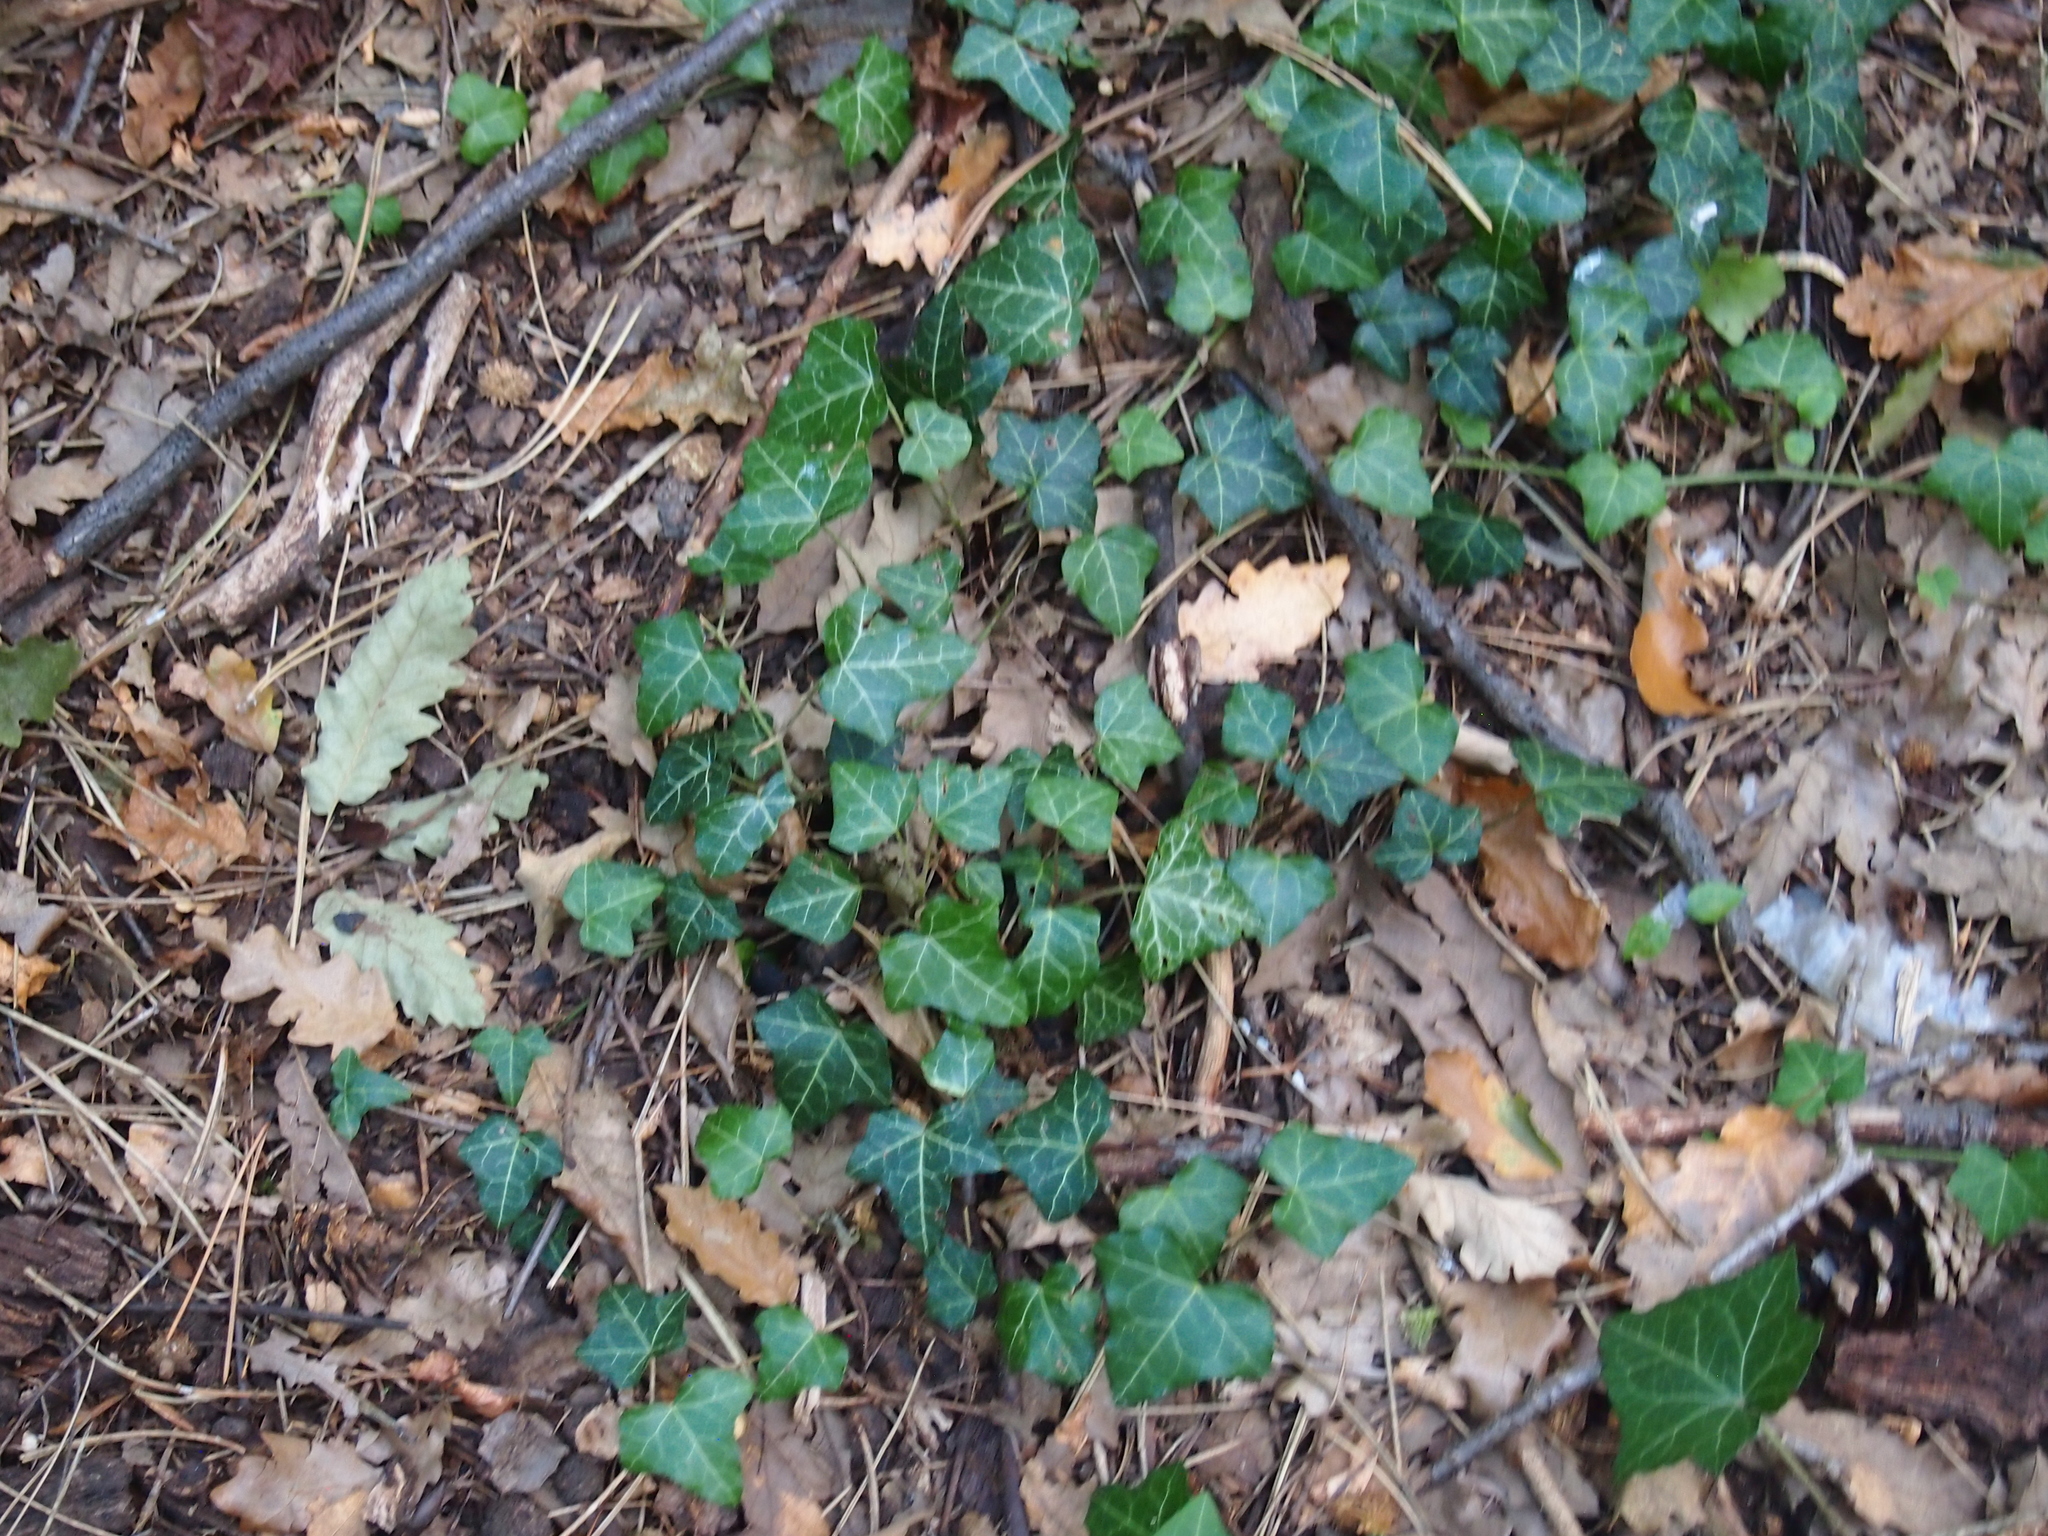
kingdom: Plantae
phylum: Tracheophyta
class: Magnoliopsida
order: Apiales
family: Araliaceae
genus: Hedera
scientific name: Hedera helix
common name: Ivy
